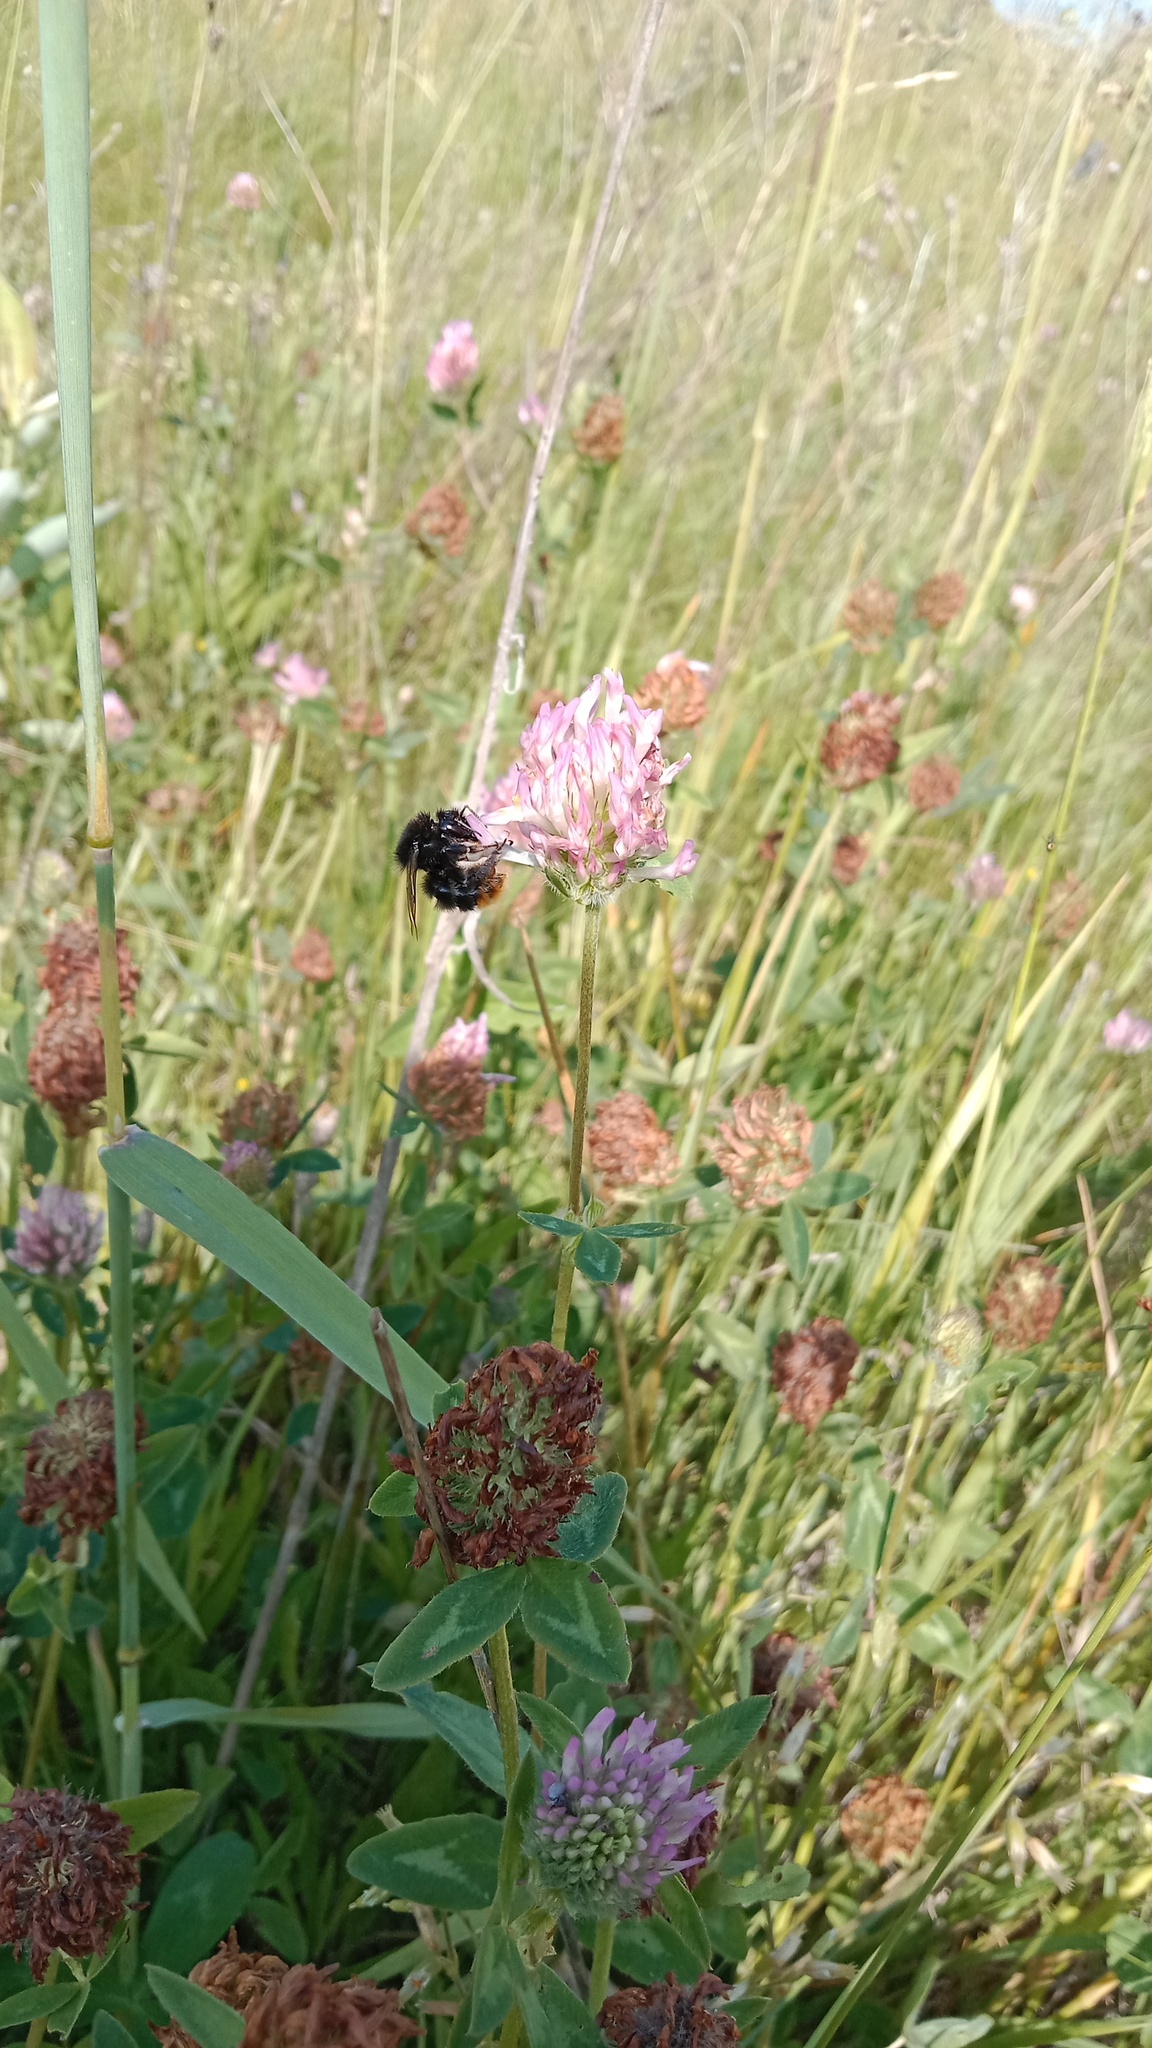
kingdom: Animalia
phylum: Arthropoda
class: Insecta
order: Hymenoptera
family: Apidae
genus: Bombus
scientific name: Bombus lapidarius
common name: Large red-tailed humble-bee
